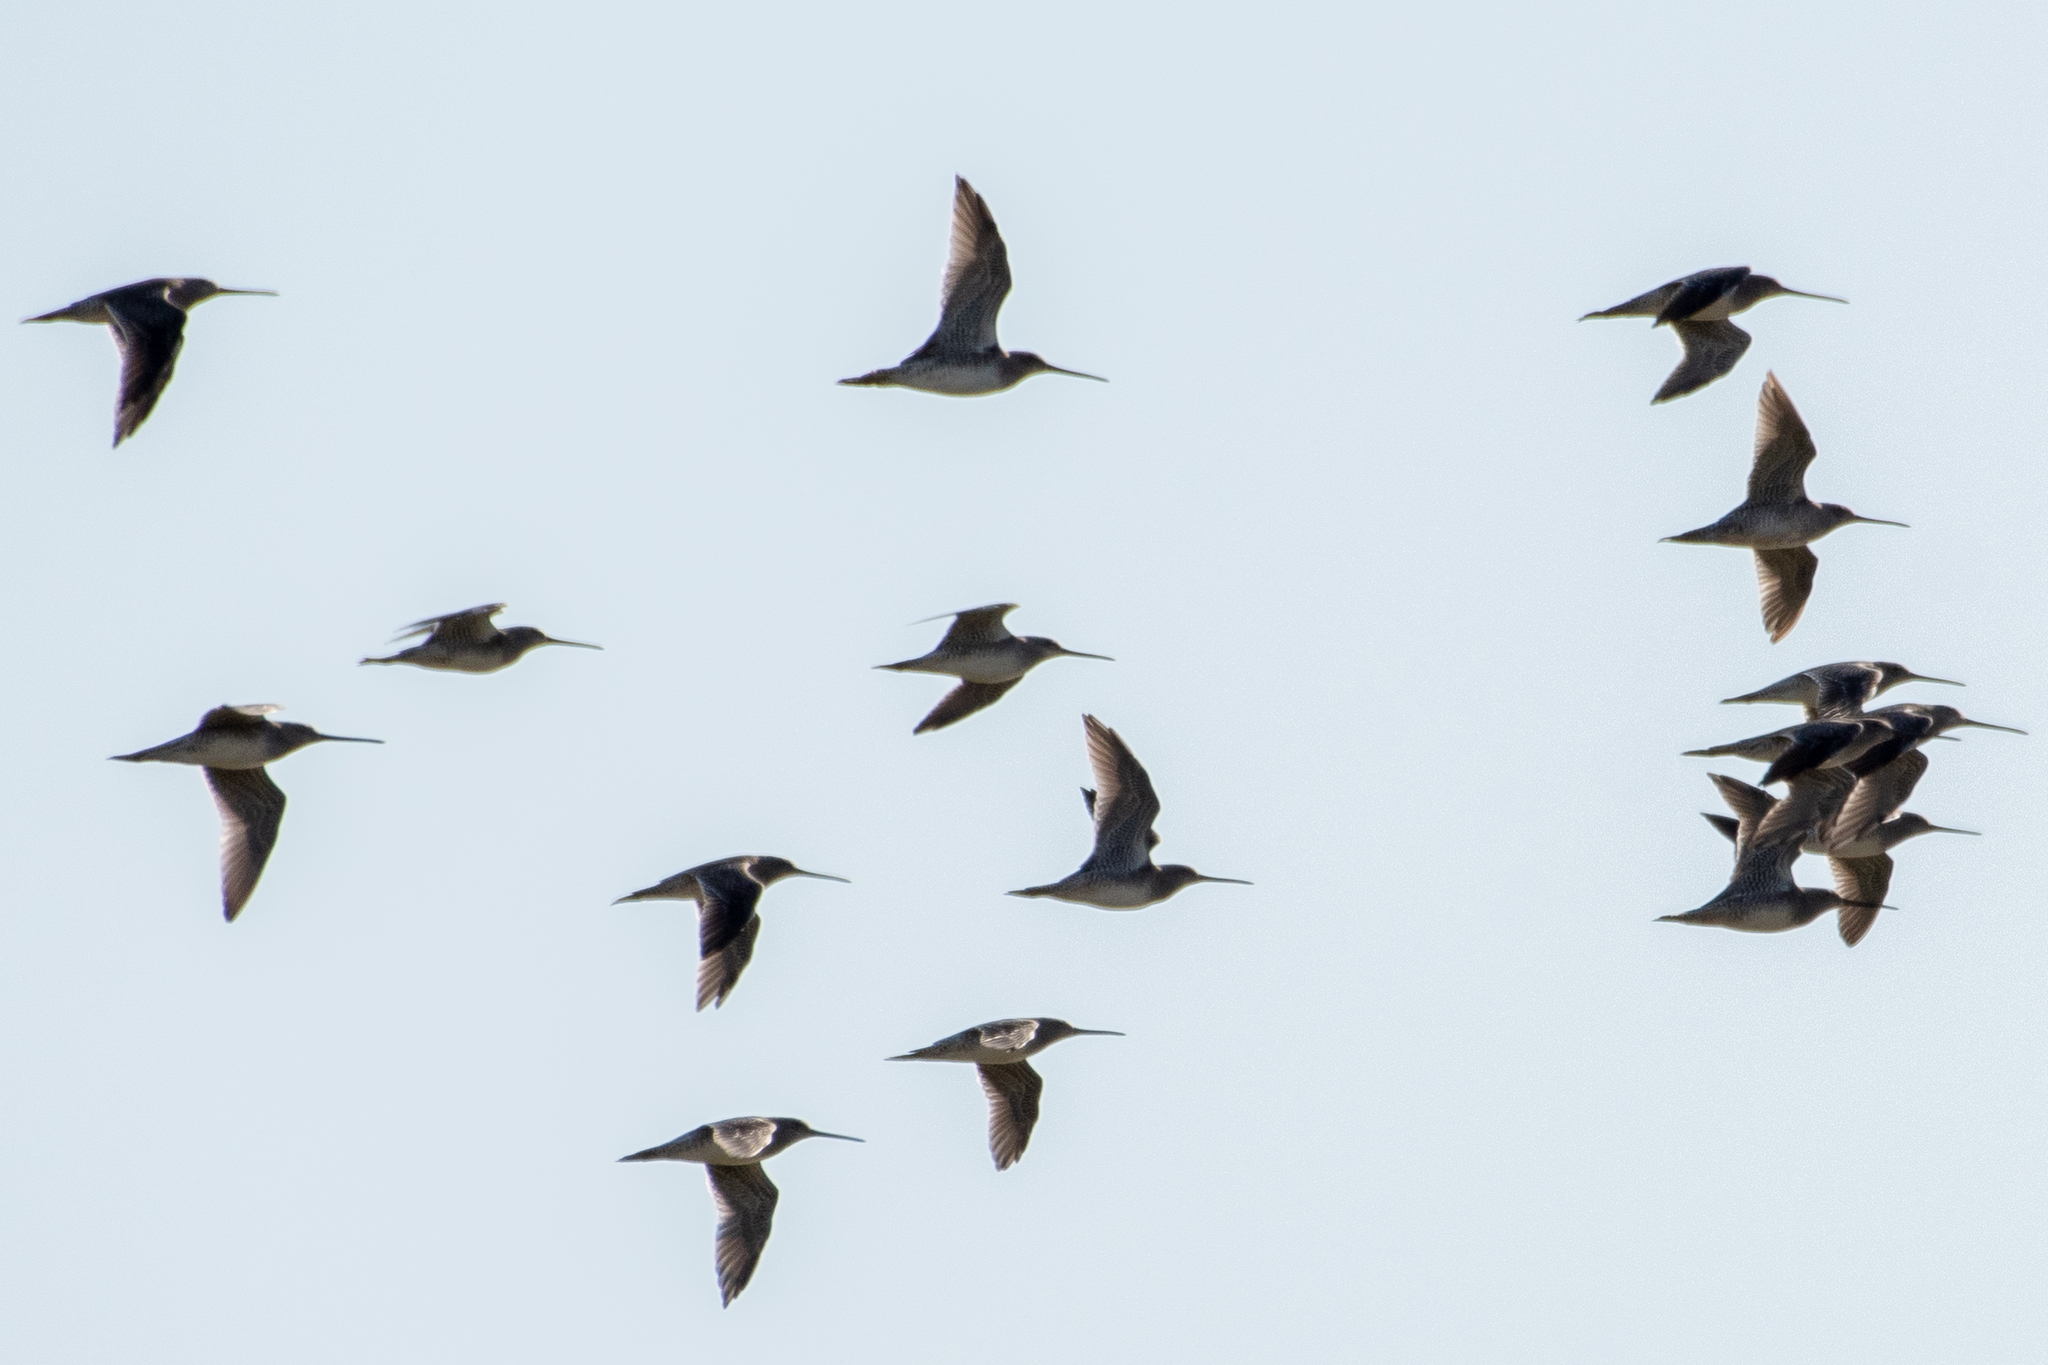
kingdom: Animalia
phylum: Chordata
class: Aves
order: Charadriiformes
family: Scolopacidae
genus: Limnodromus
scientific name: Limnodromus scolopaceus
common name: Long-billed dowitcher
